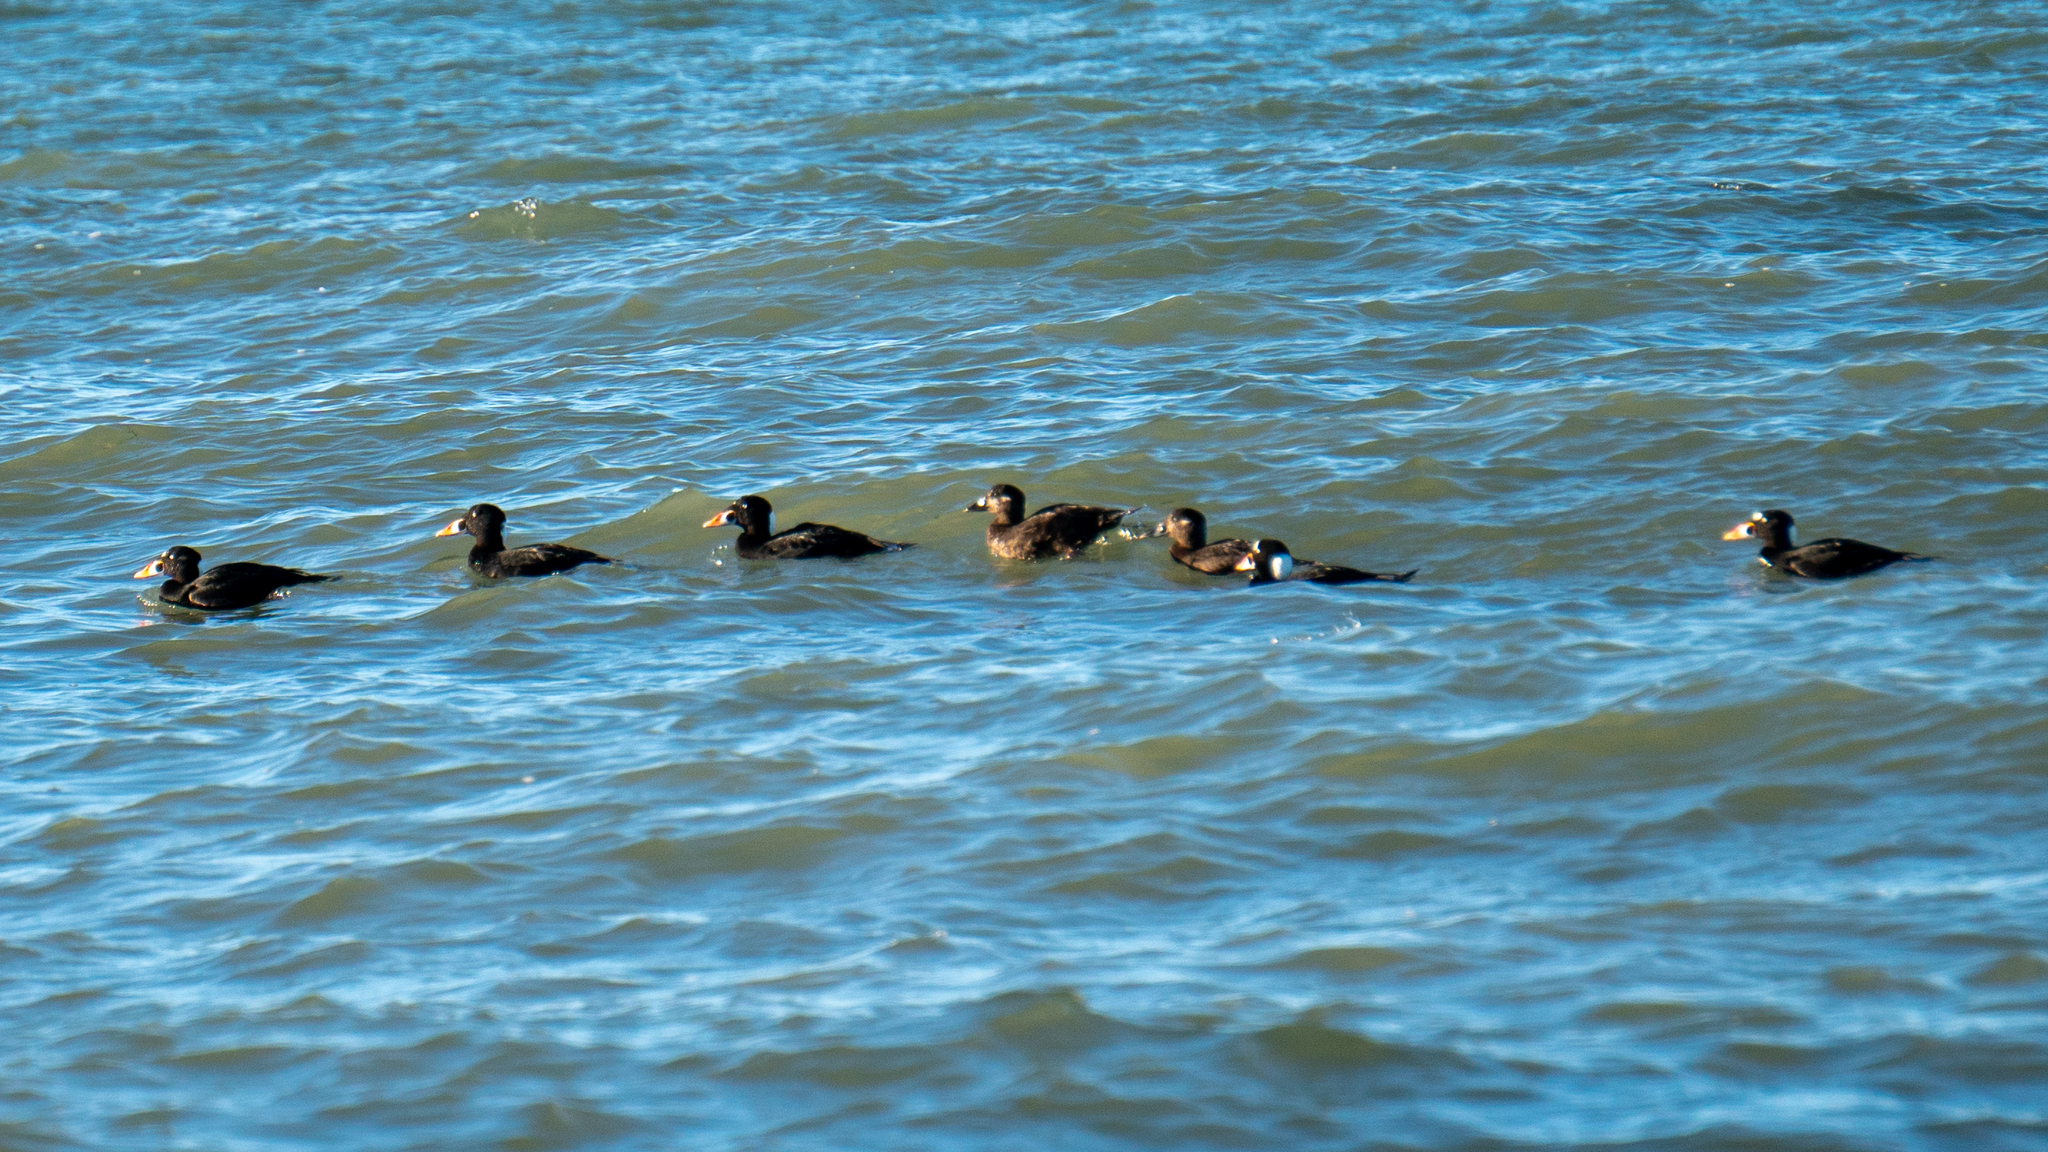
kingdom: Animalia
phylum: Chordata
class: Aves
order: Anseriformes
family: Anatidae
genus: Melanitta
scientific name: Melanitta perspicillata
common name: Surf scoter
